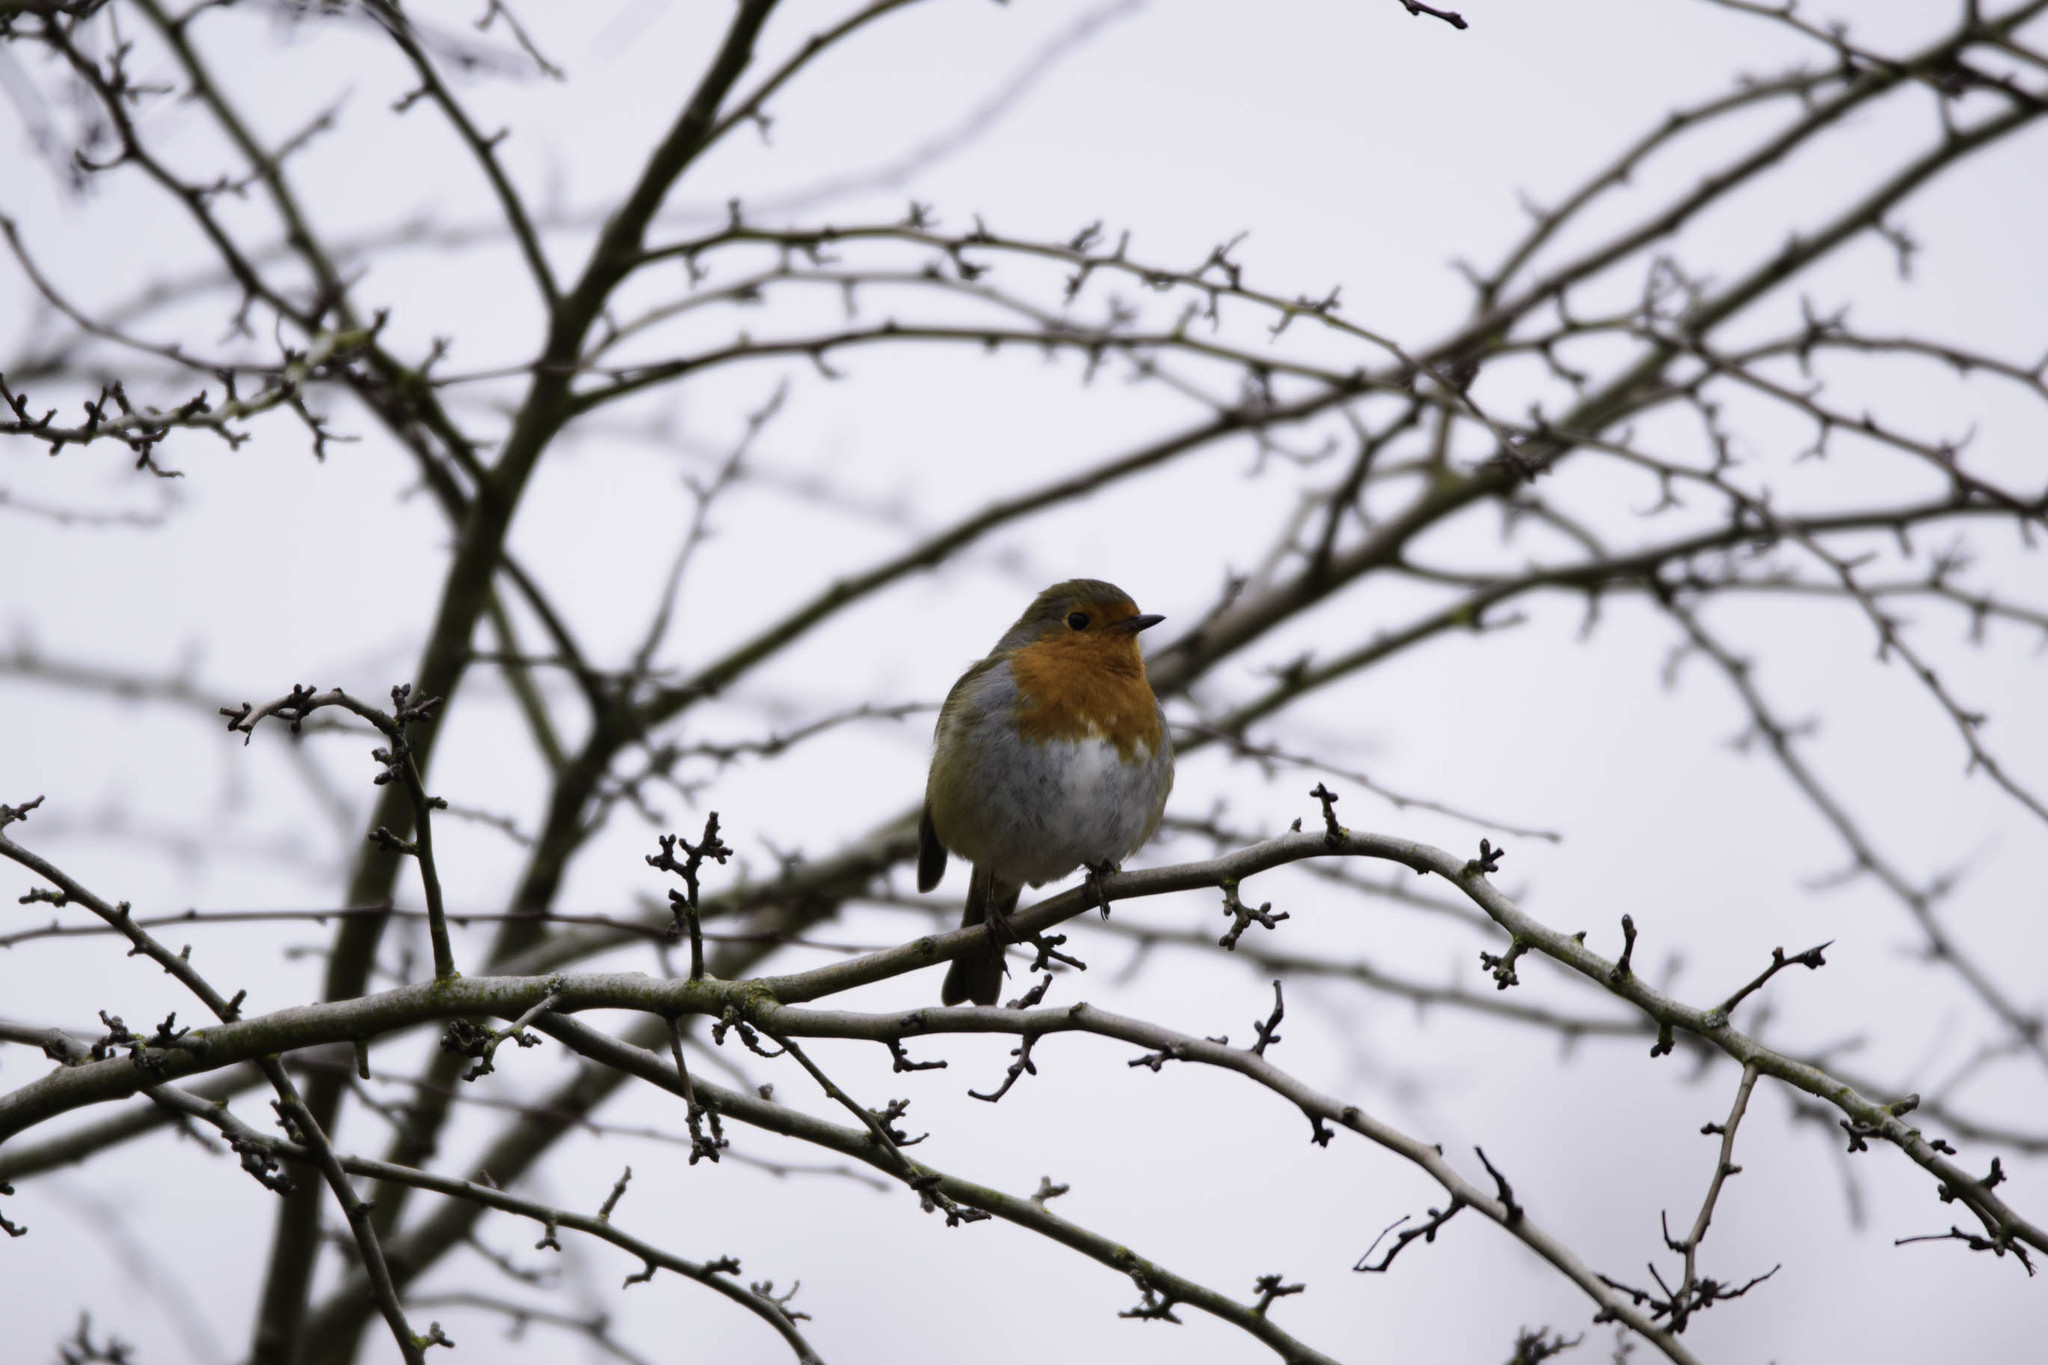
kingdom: Animalia
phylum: Chordata
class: Aves
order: Passeriformes
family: Muscicapidae
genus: Erithacus
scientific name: Erithacus rubecula
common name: European robin
